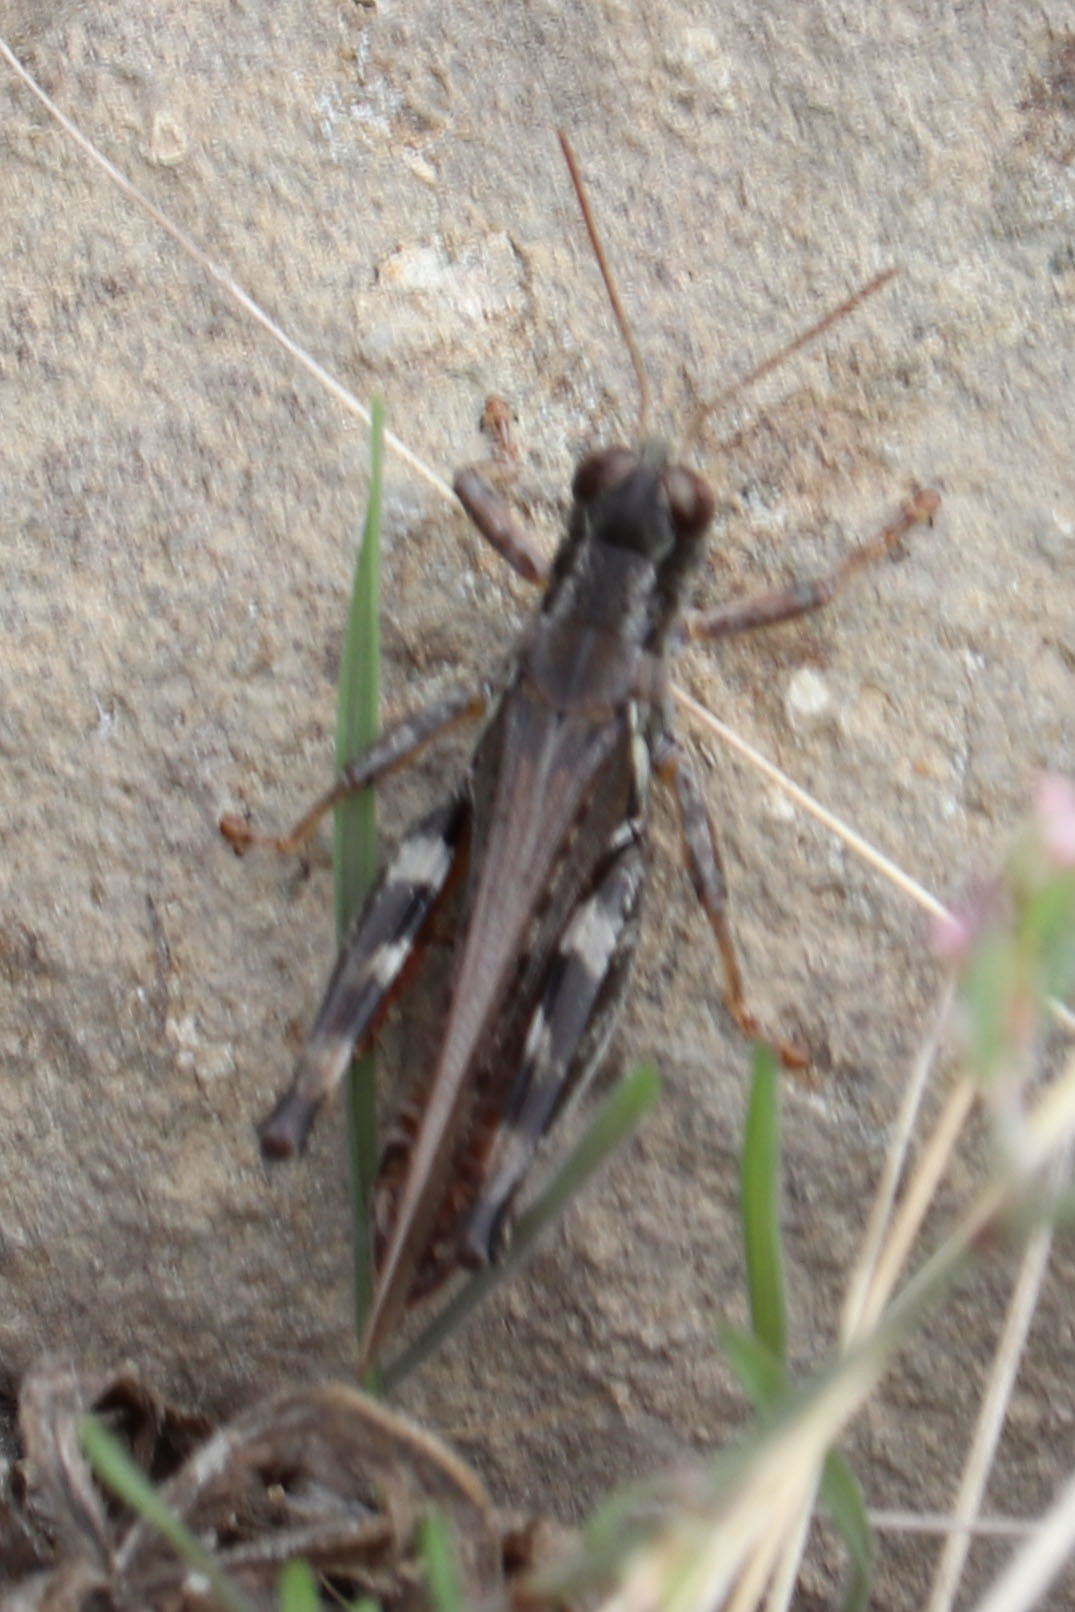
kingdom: Animalia
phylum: Arthropoda
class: Insecta
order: Orthoptera
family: Acrididae
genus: Melanoplus
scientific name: Melanoplus sanguinipes
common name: Migratory grasshopper
